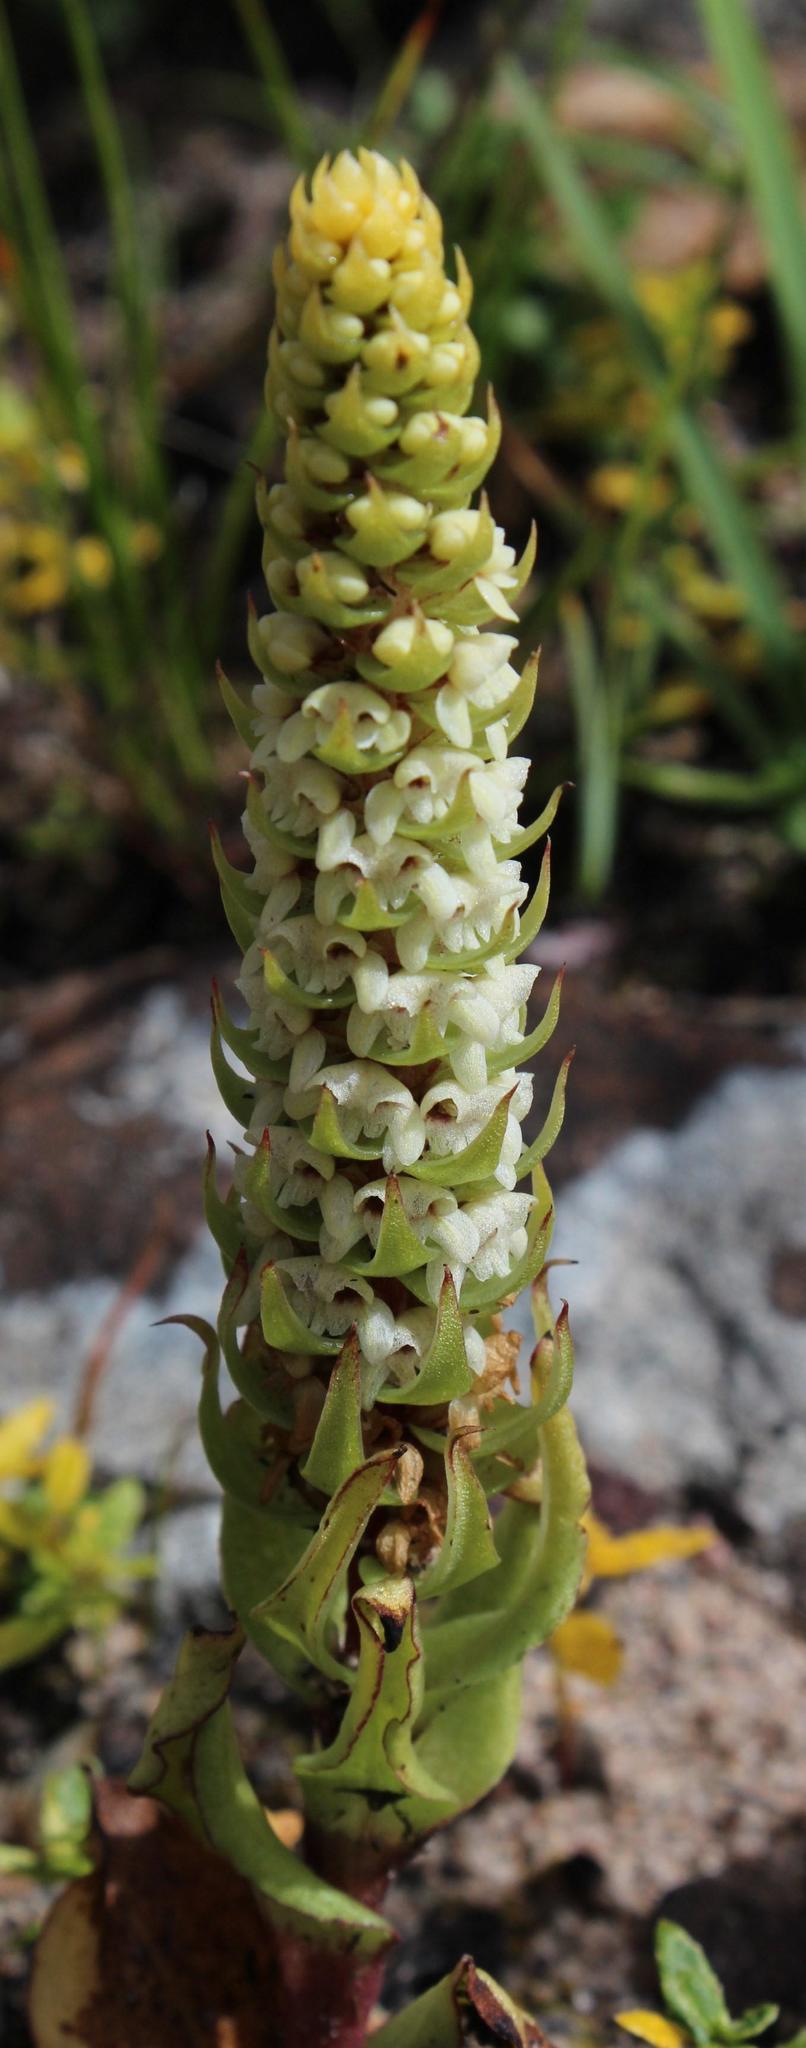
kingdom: Plantae
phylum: Tracheophyta
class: Liliopsida
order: Asparagales
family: Orchidaceae
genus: Satyrium
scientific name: Satyrium bicallosum
